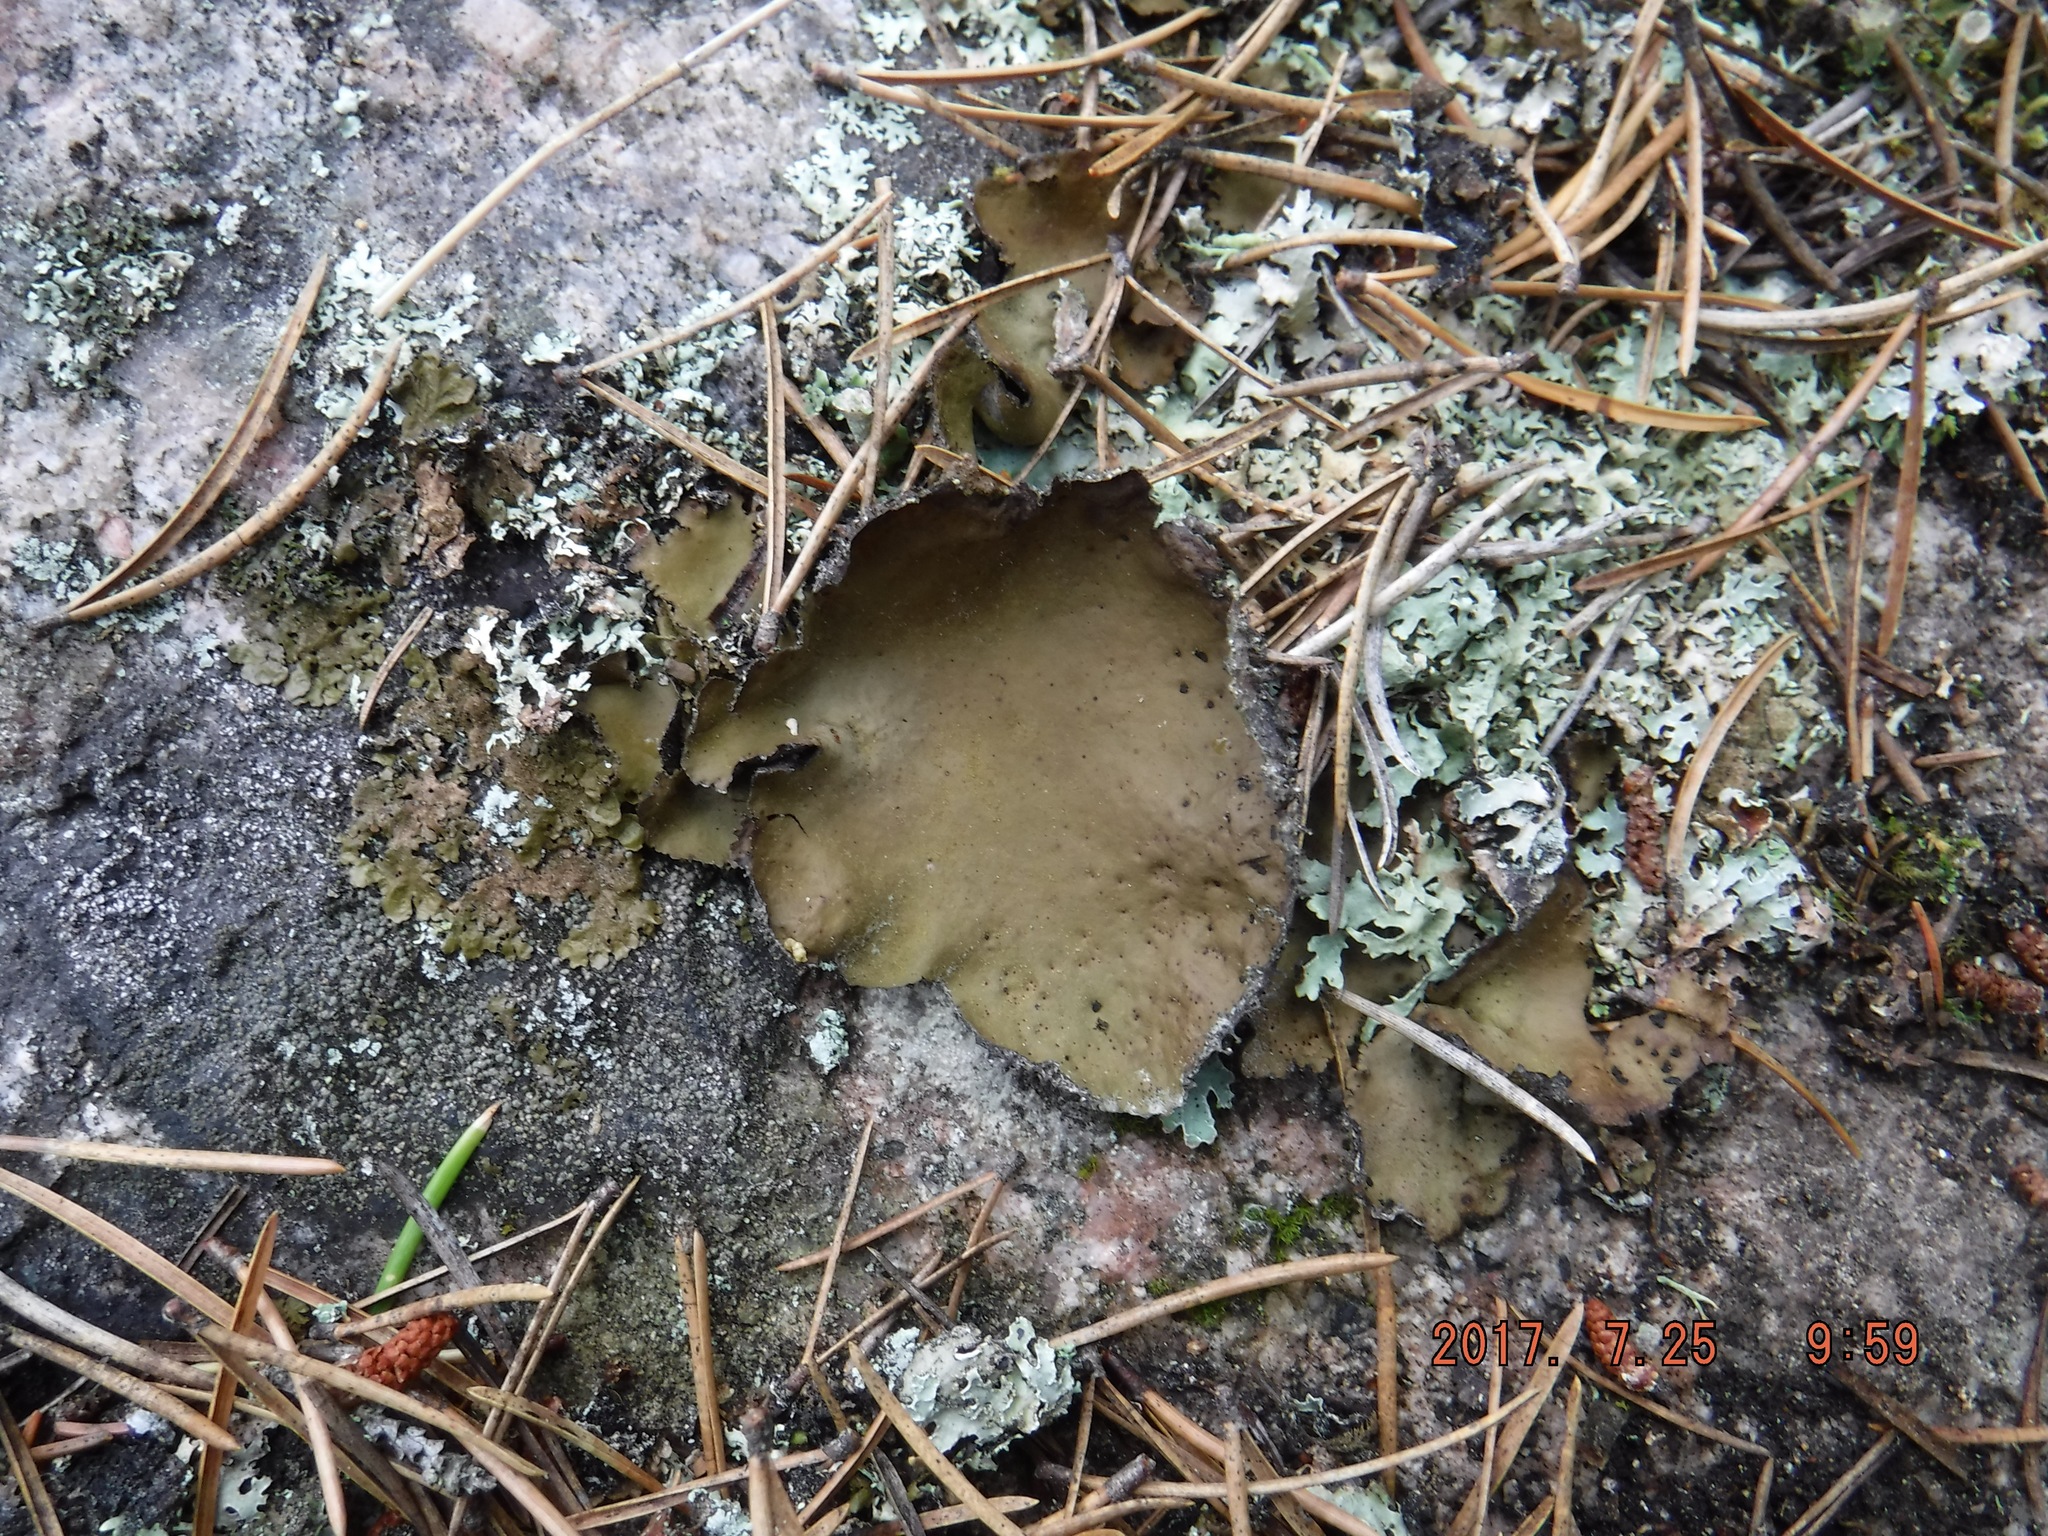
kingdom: Fungi
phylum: Ascomycota
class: Lecanoromycetes
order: Umbilicariales
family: Umbilicariaceae
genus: Umbilicaria
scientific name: Umbilicaria mammulata
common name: Smooth rock tripe
